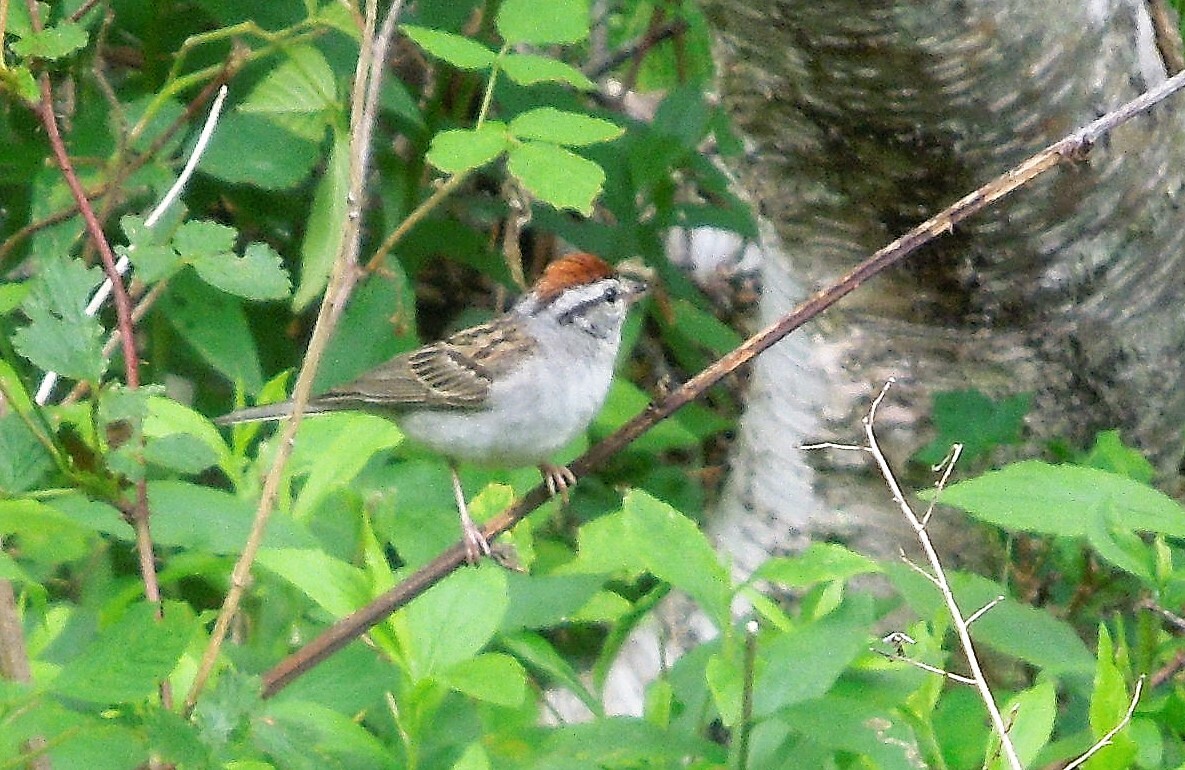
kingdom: Animalia
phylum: Chordata
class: Aves
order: Passeriformes
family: Passerellidae
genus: Spizella
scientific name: Spizella passerina
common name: Chipping sparrow
